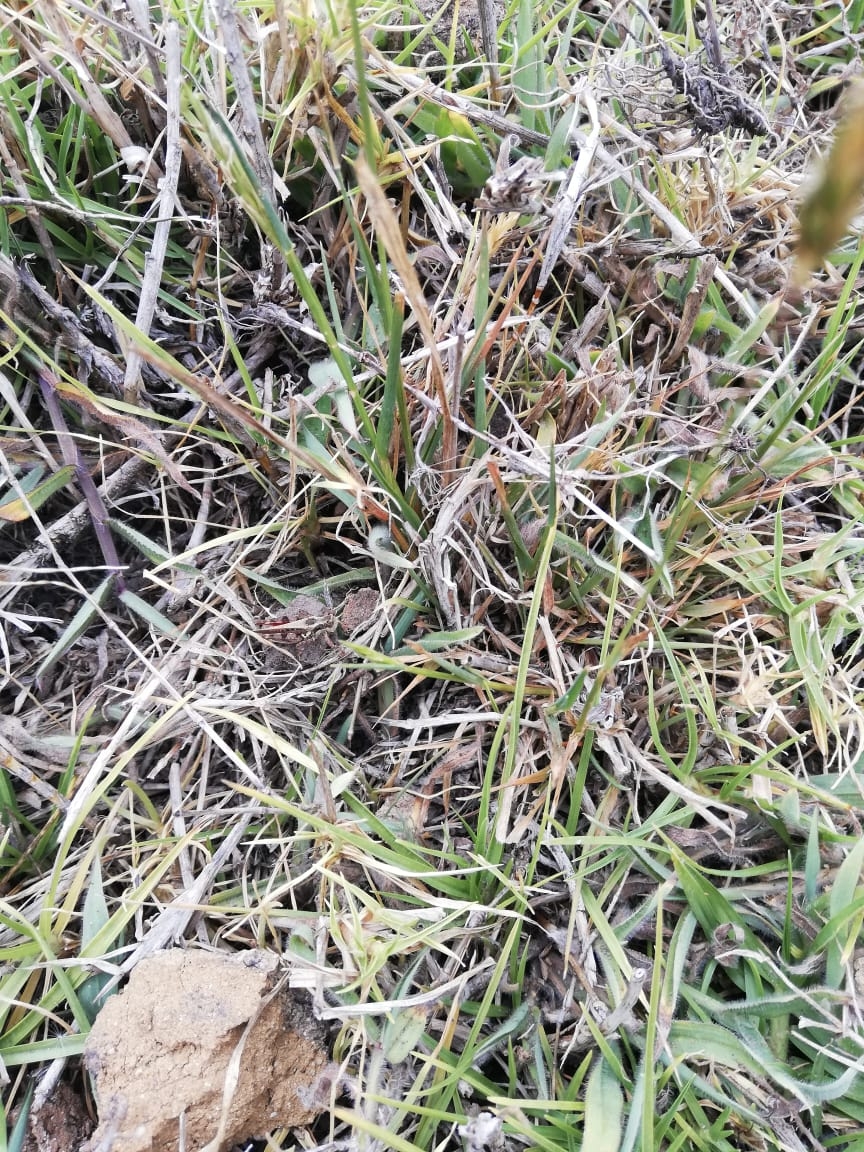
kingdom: Animalia
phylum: Chordata
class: Squamata
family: Tropiduridae
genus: Stenocercus
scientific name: Stenocercus guentheri
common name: Günther's whorltail iguana
